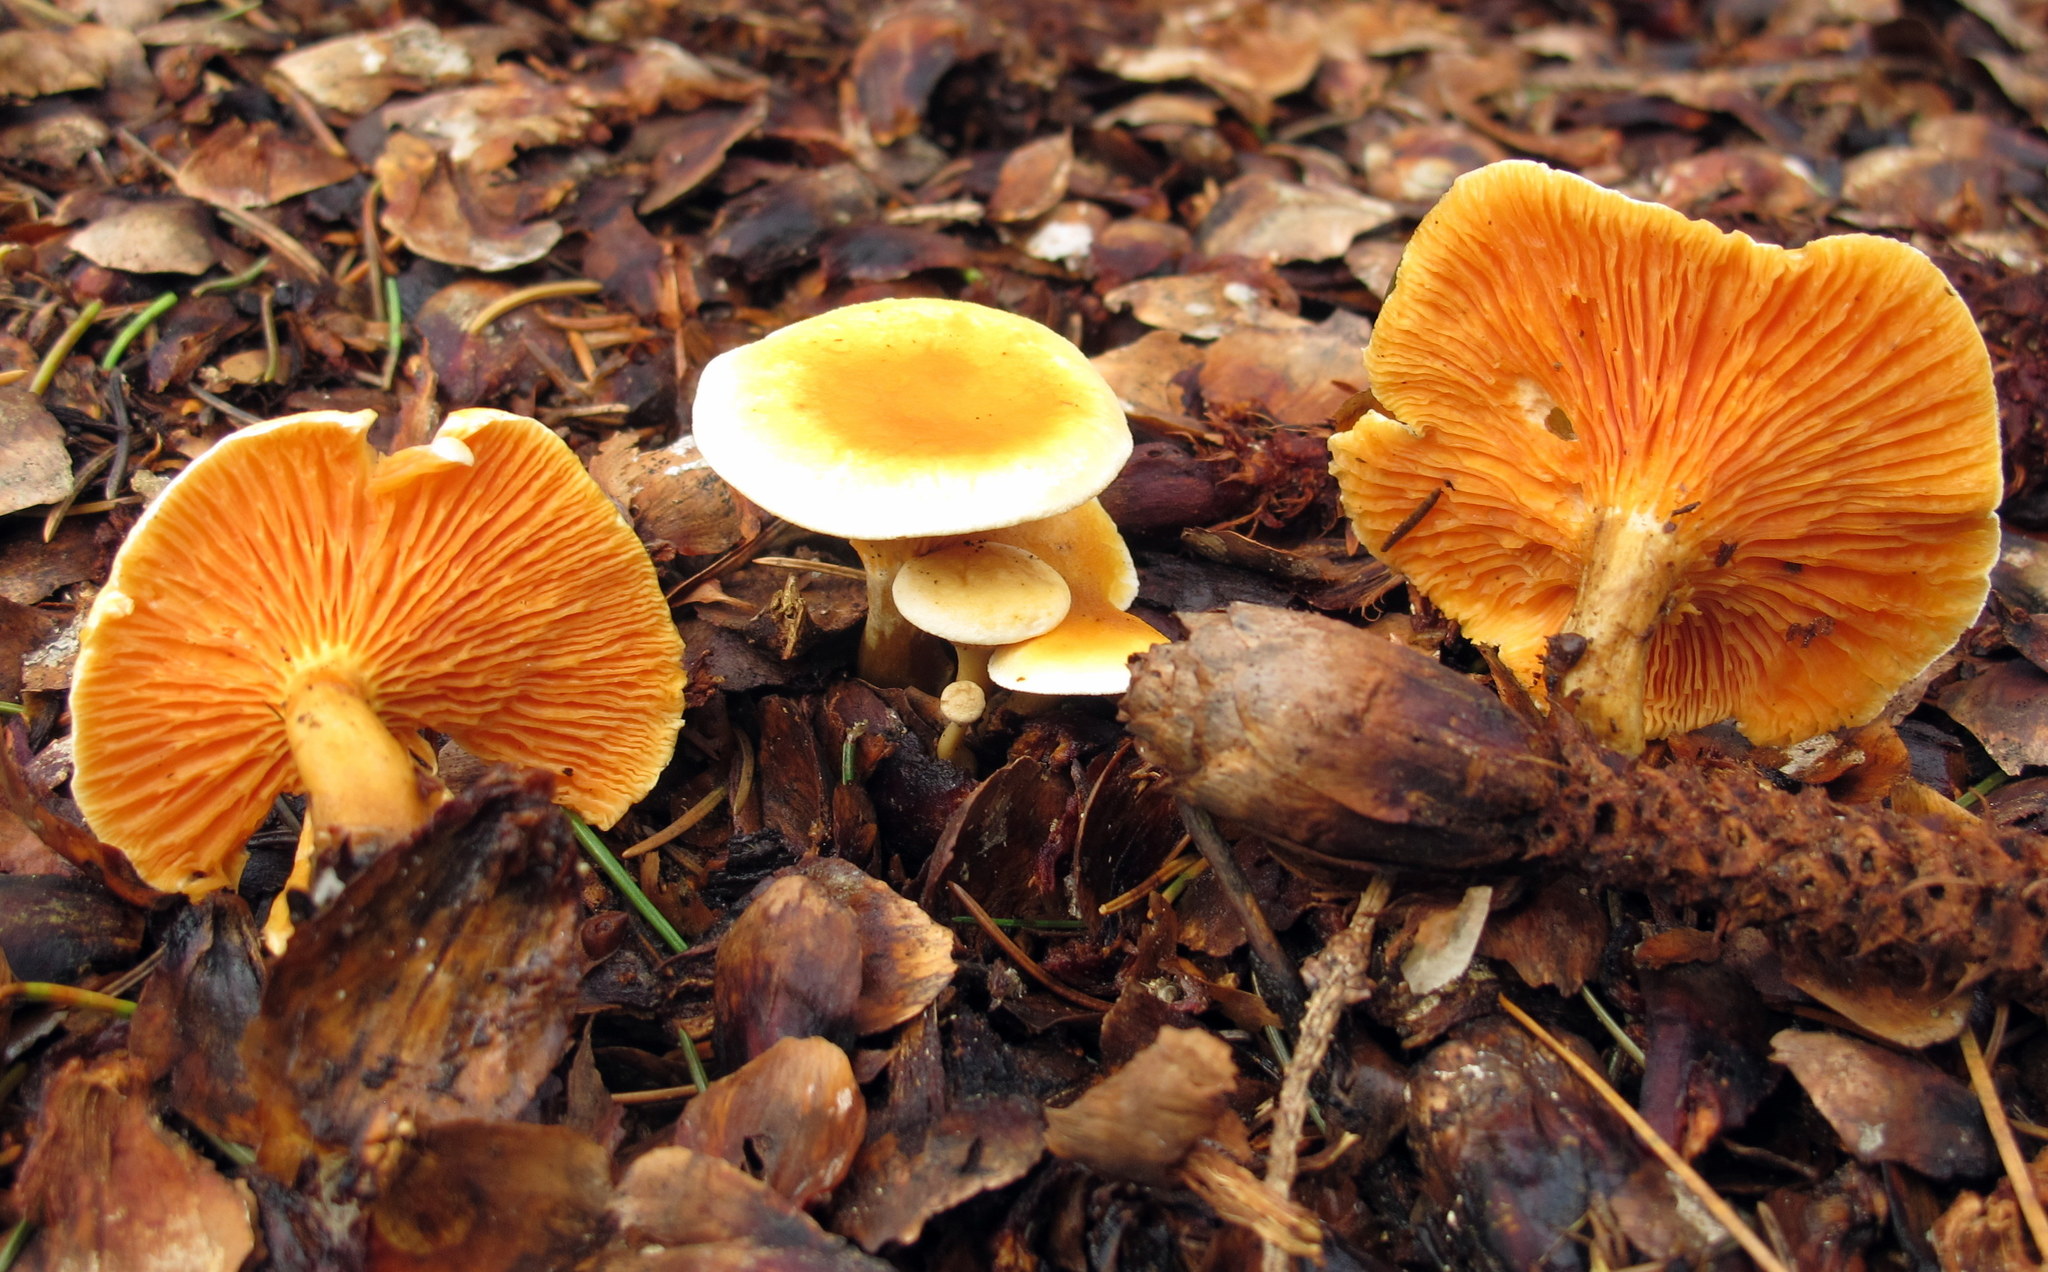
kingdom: Fungi
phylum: Basidiomycota
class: Agaricomycetes
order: Boletales
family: Hygrophoropsidaceae
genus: Hygrophoropsis
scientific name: Hygrophoropsis aurantiaca
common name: False chanterelle
